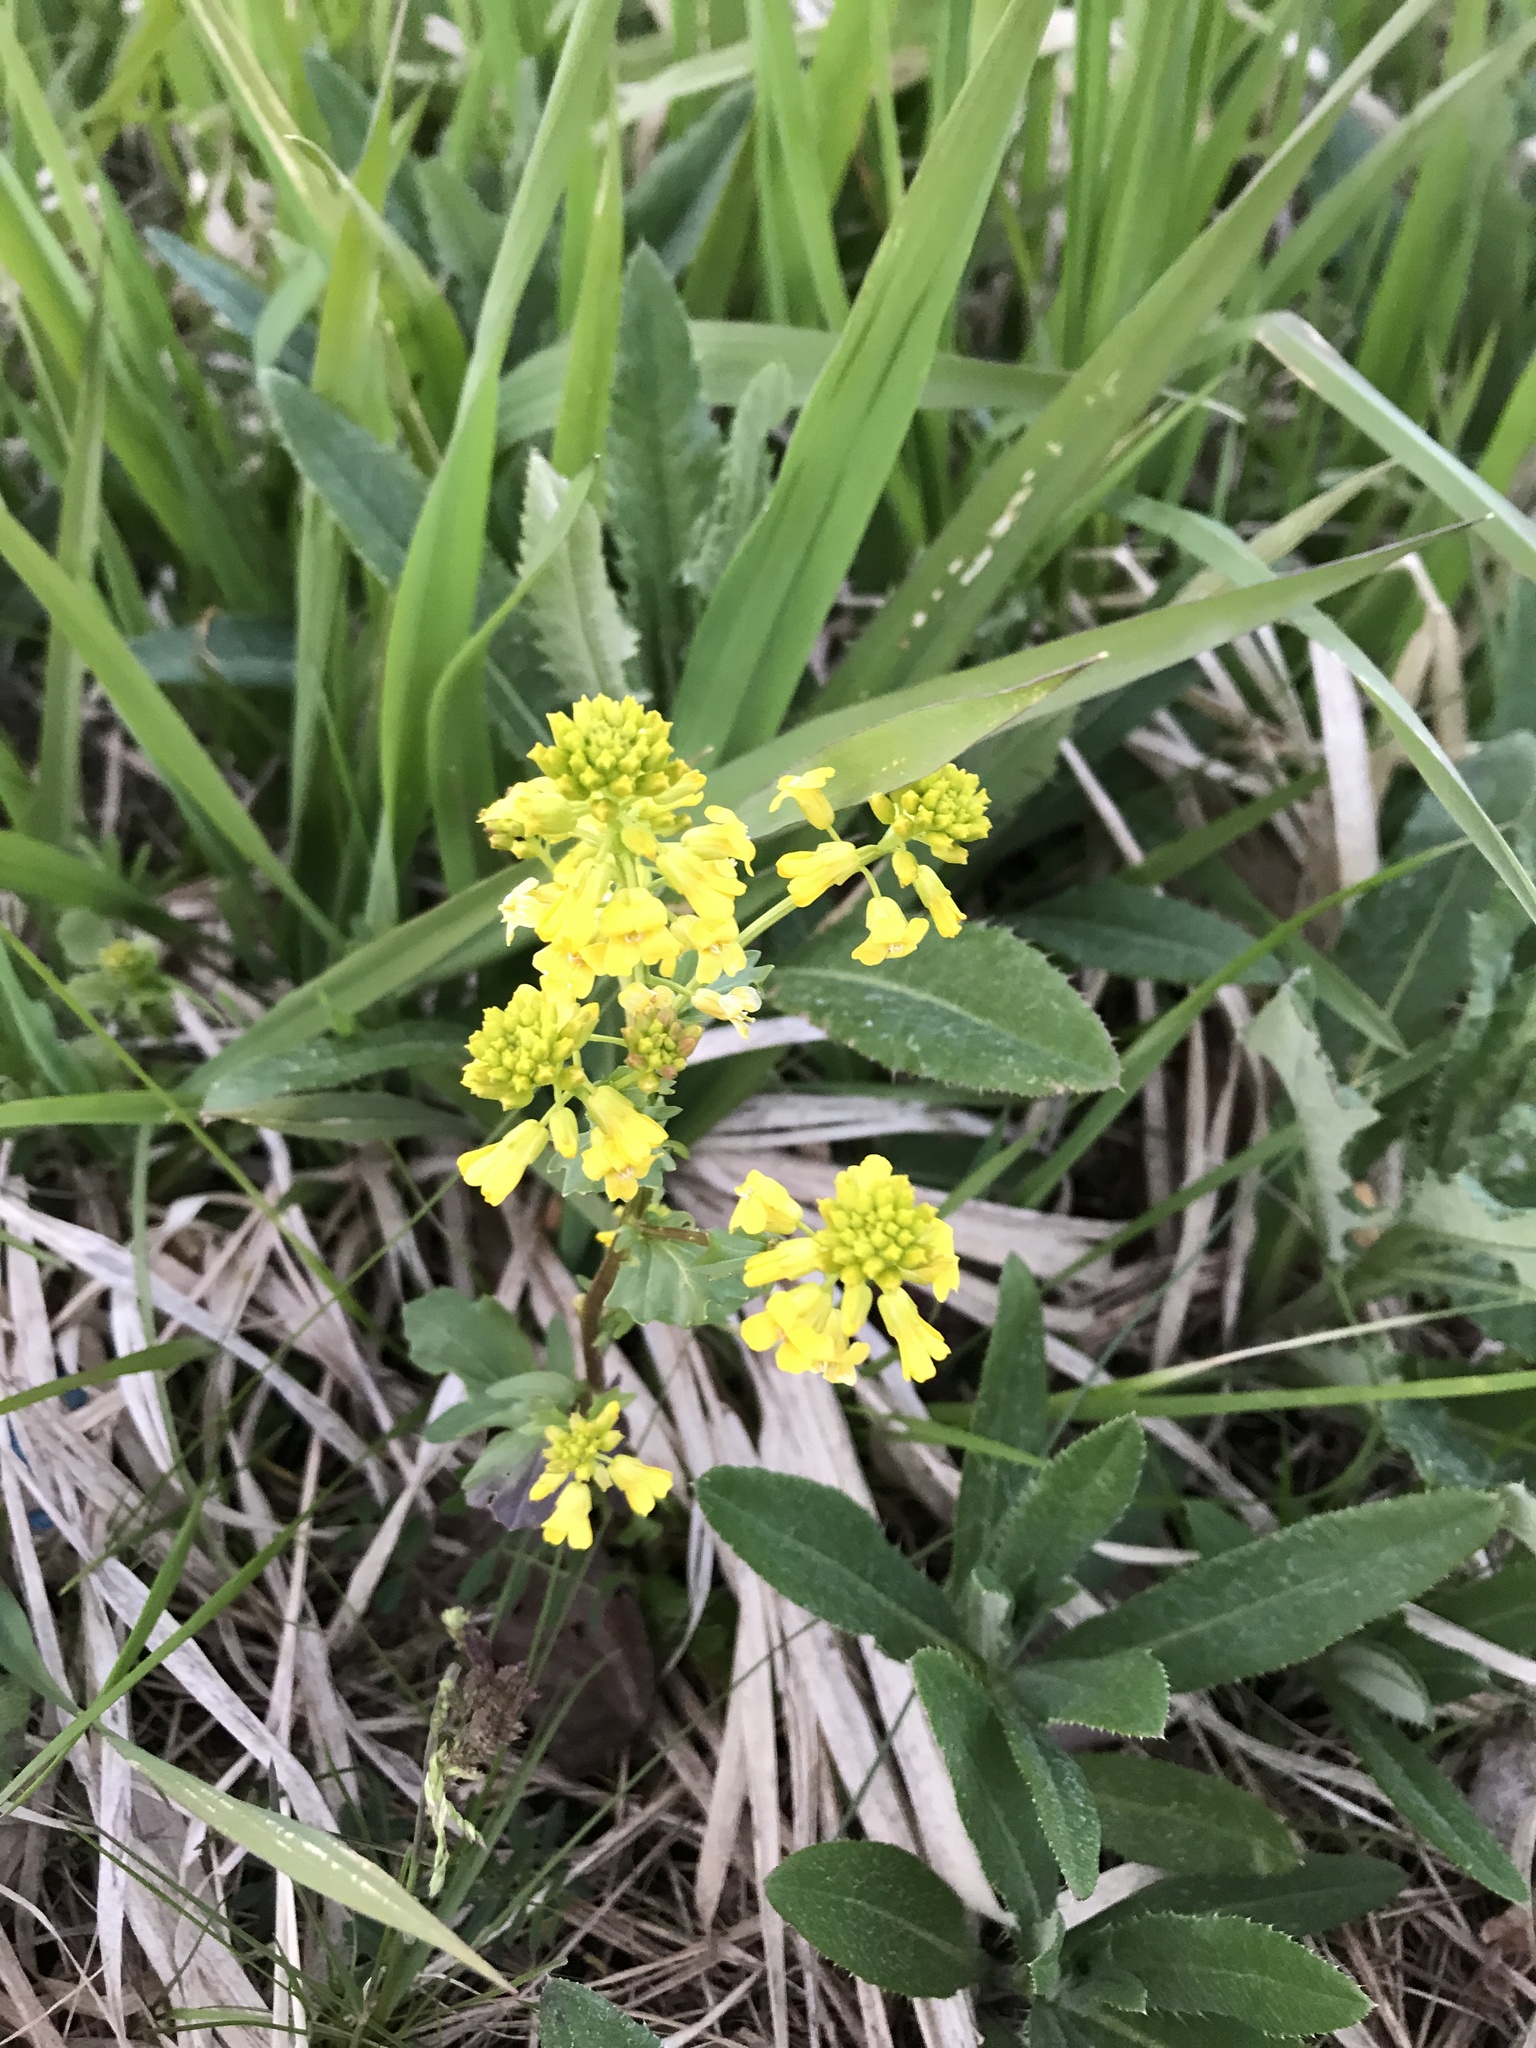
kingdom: Plantae
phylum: Tracheophyta
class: Magnoliopsida
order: Brassicales
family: Brassicaceae
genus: Barbarea
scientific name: Barbarea vulgaris
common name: Cressy-greens
